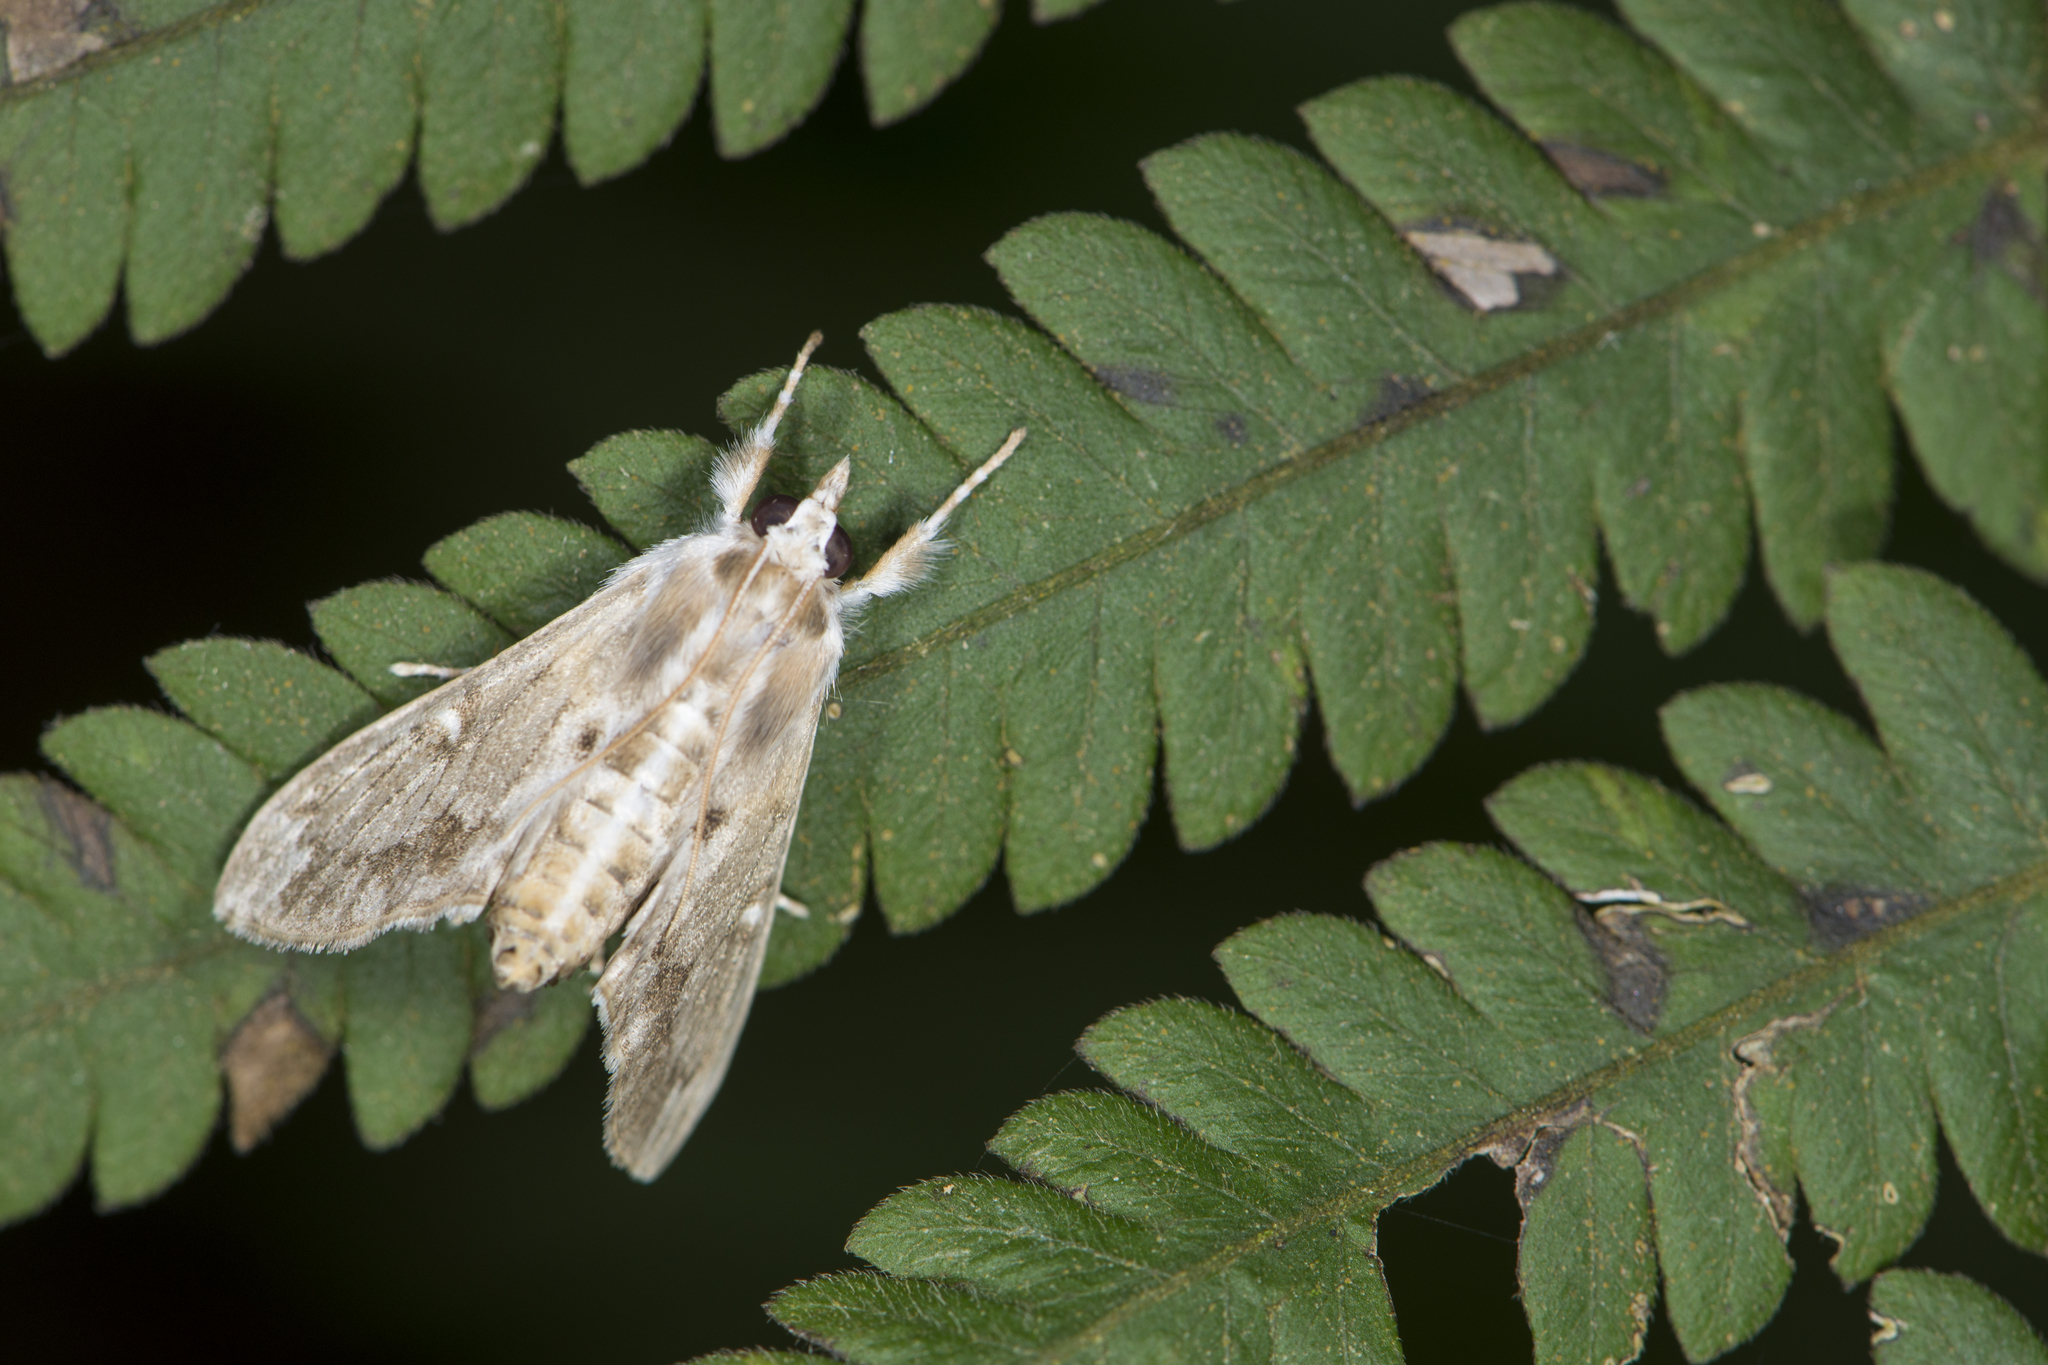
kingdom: Animalia
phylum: Arthropoda
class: Insecta
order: Lepidoptera
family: Crambidae
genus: Cirrhochrista
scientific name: Cirrhochrista spissalis
